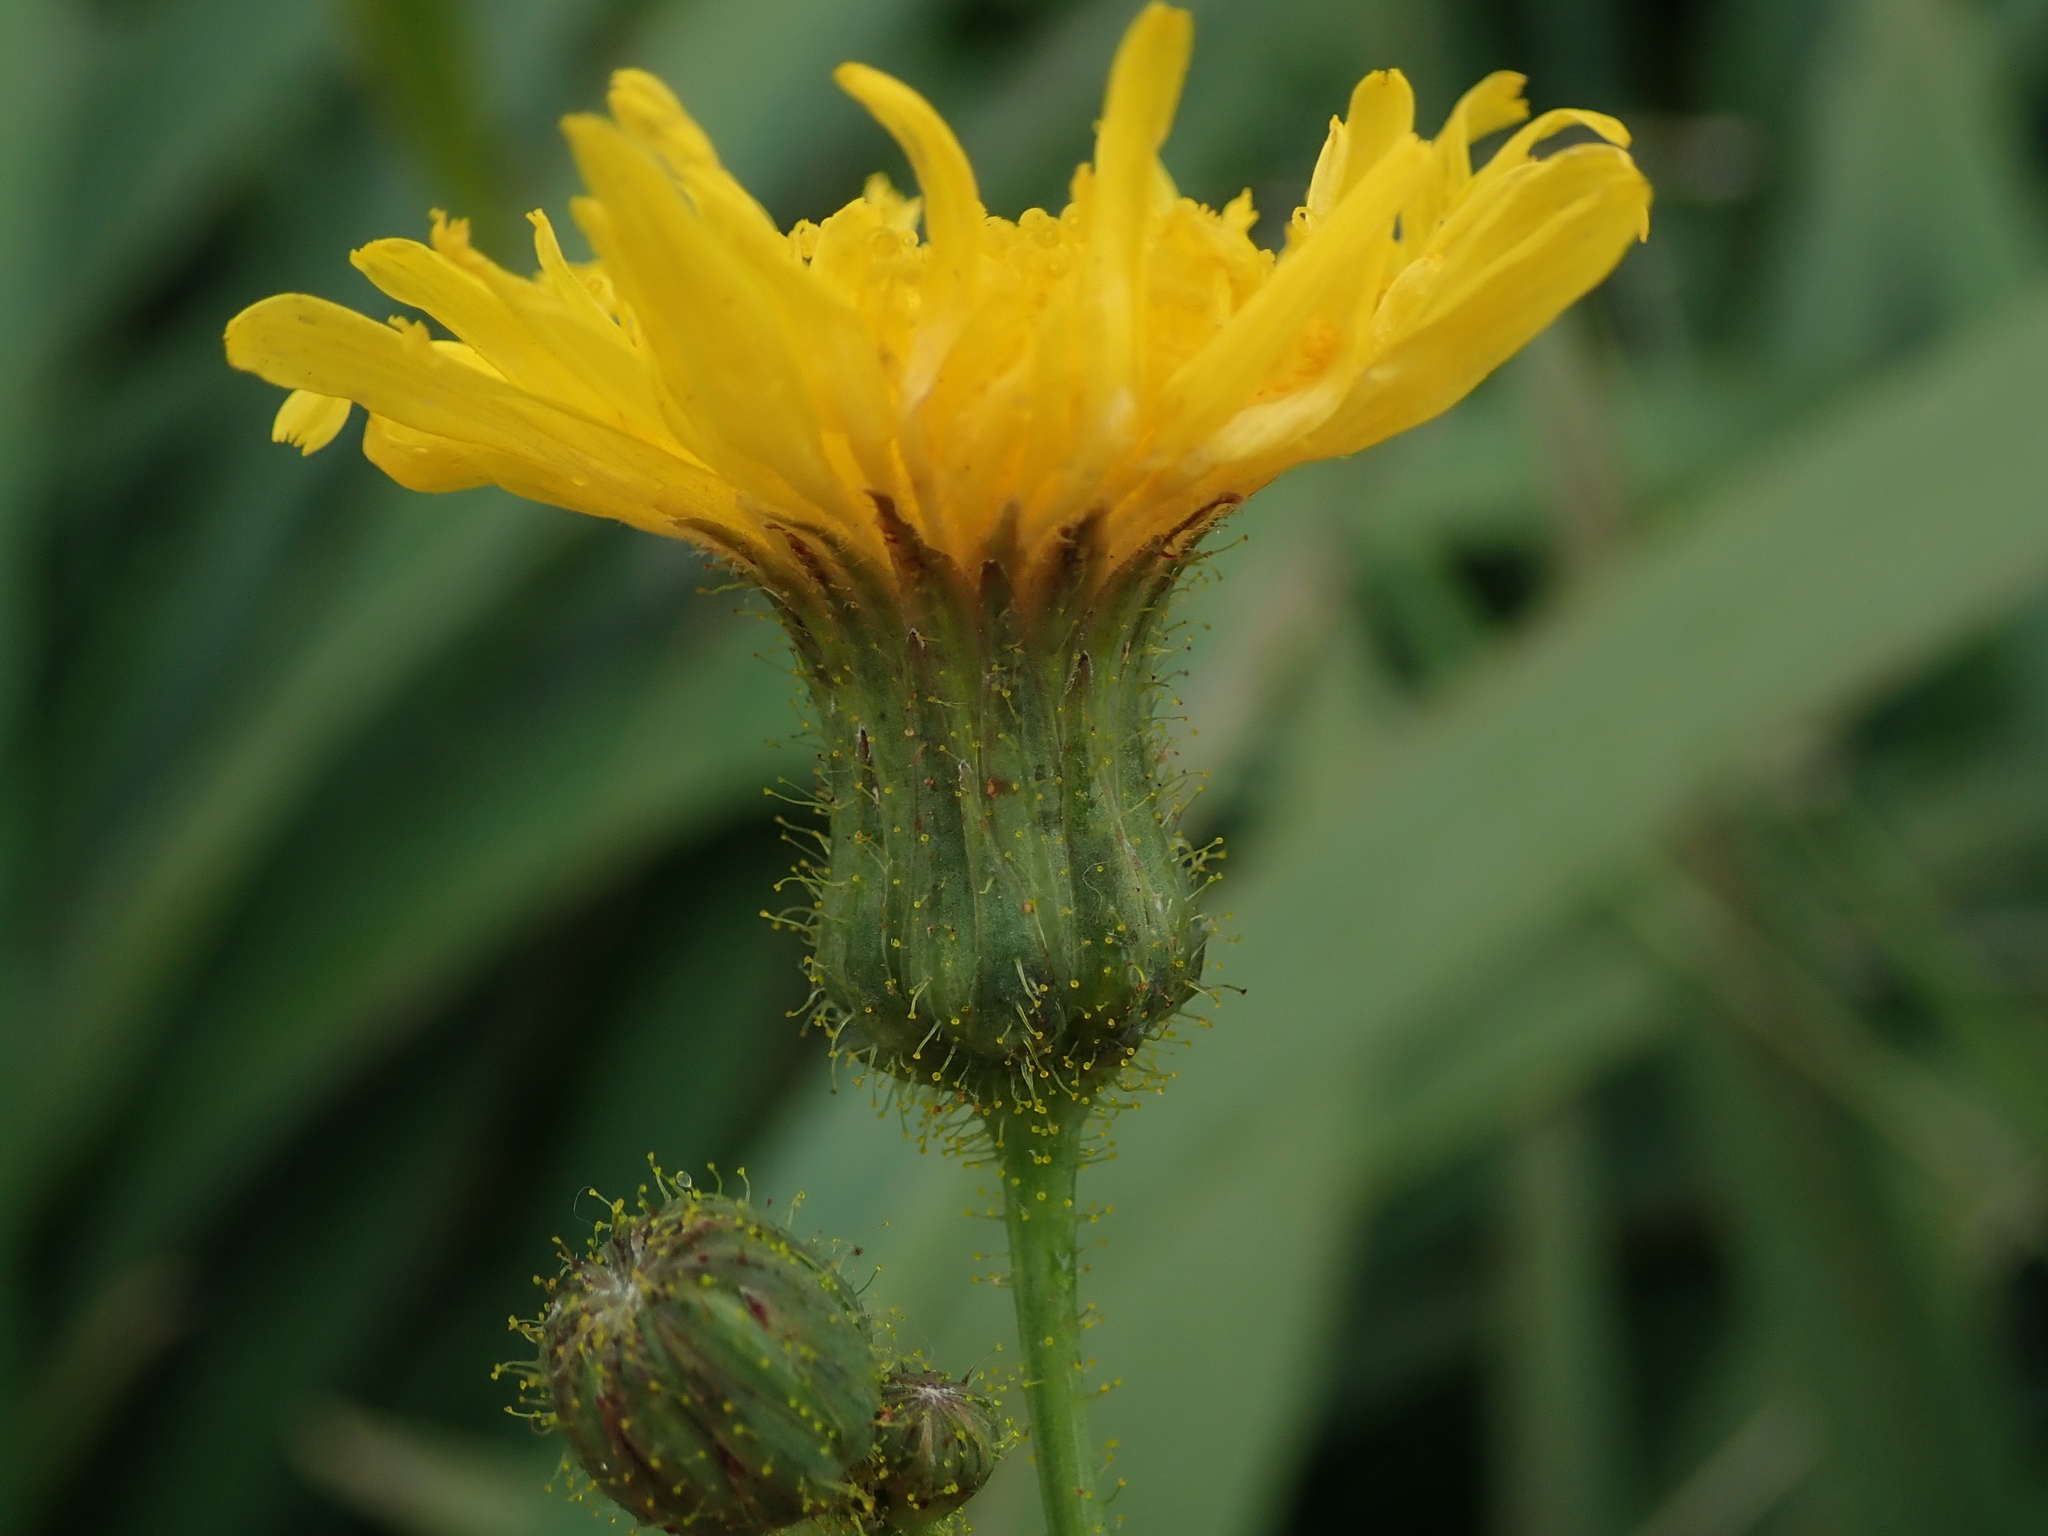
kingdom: Plantae
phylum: Tracheophyta
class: Magnoliopsida
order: Asterales
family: Asteraceae
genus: Sonchus
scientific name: Sonchus arvensis
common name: Perennial sow-thistle
